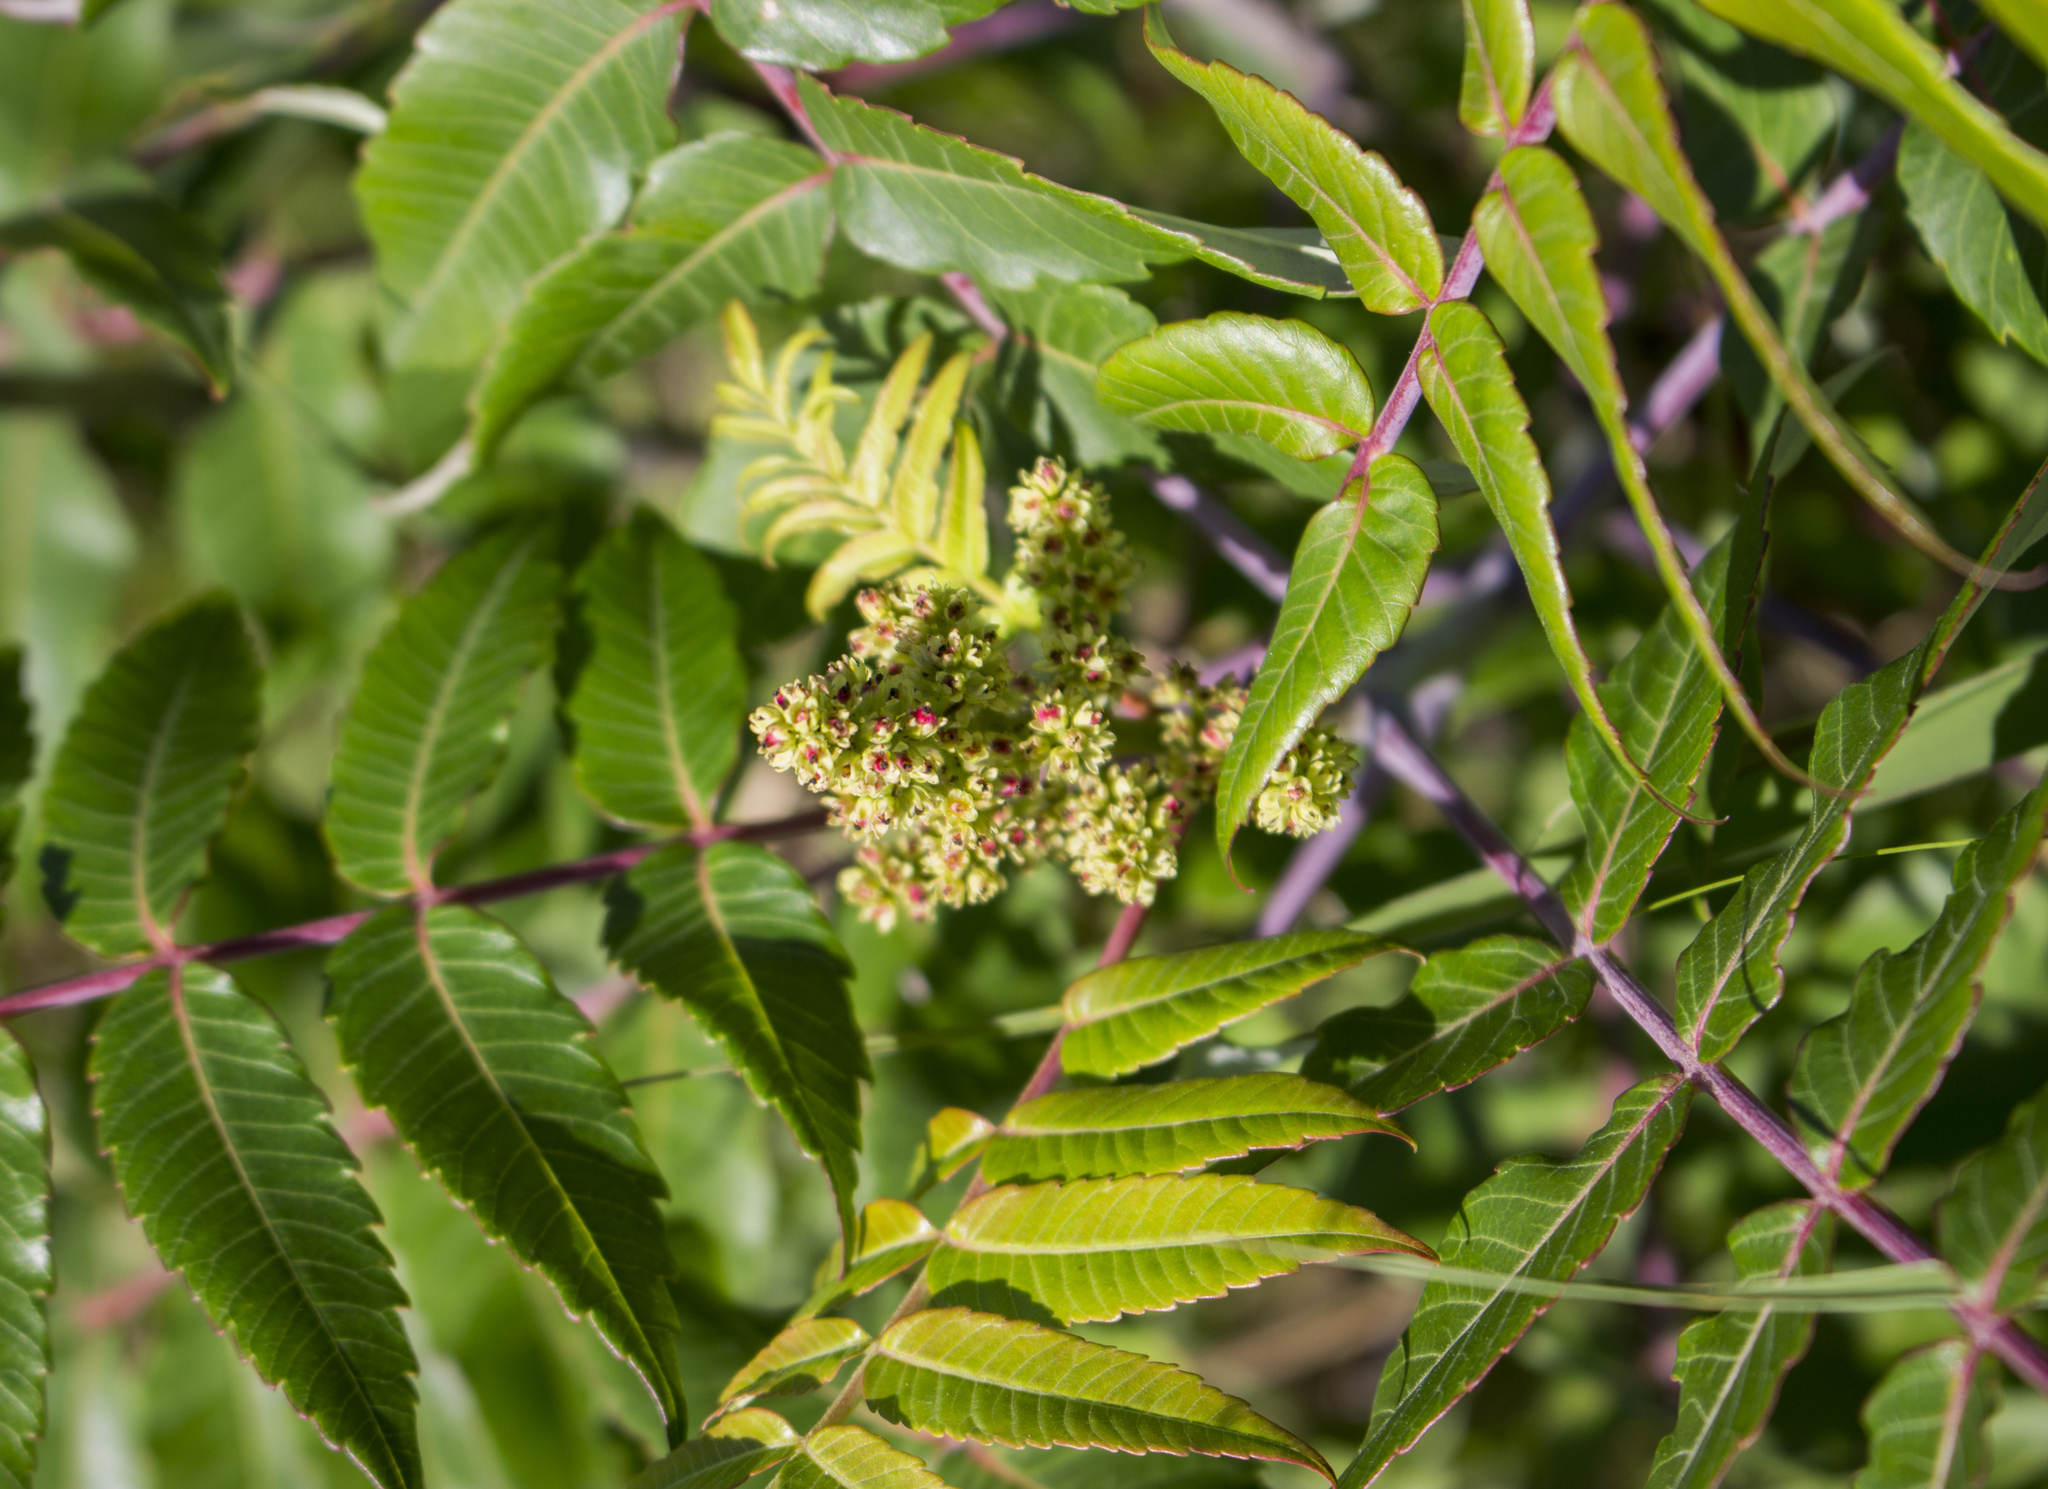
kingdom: Plantae
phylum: Tracheophyta
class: Magnoliopsida
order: Sapindales
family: Anacardiaceae
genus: Rhus
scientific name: Rhus glabra
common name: Scarlet sumac
